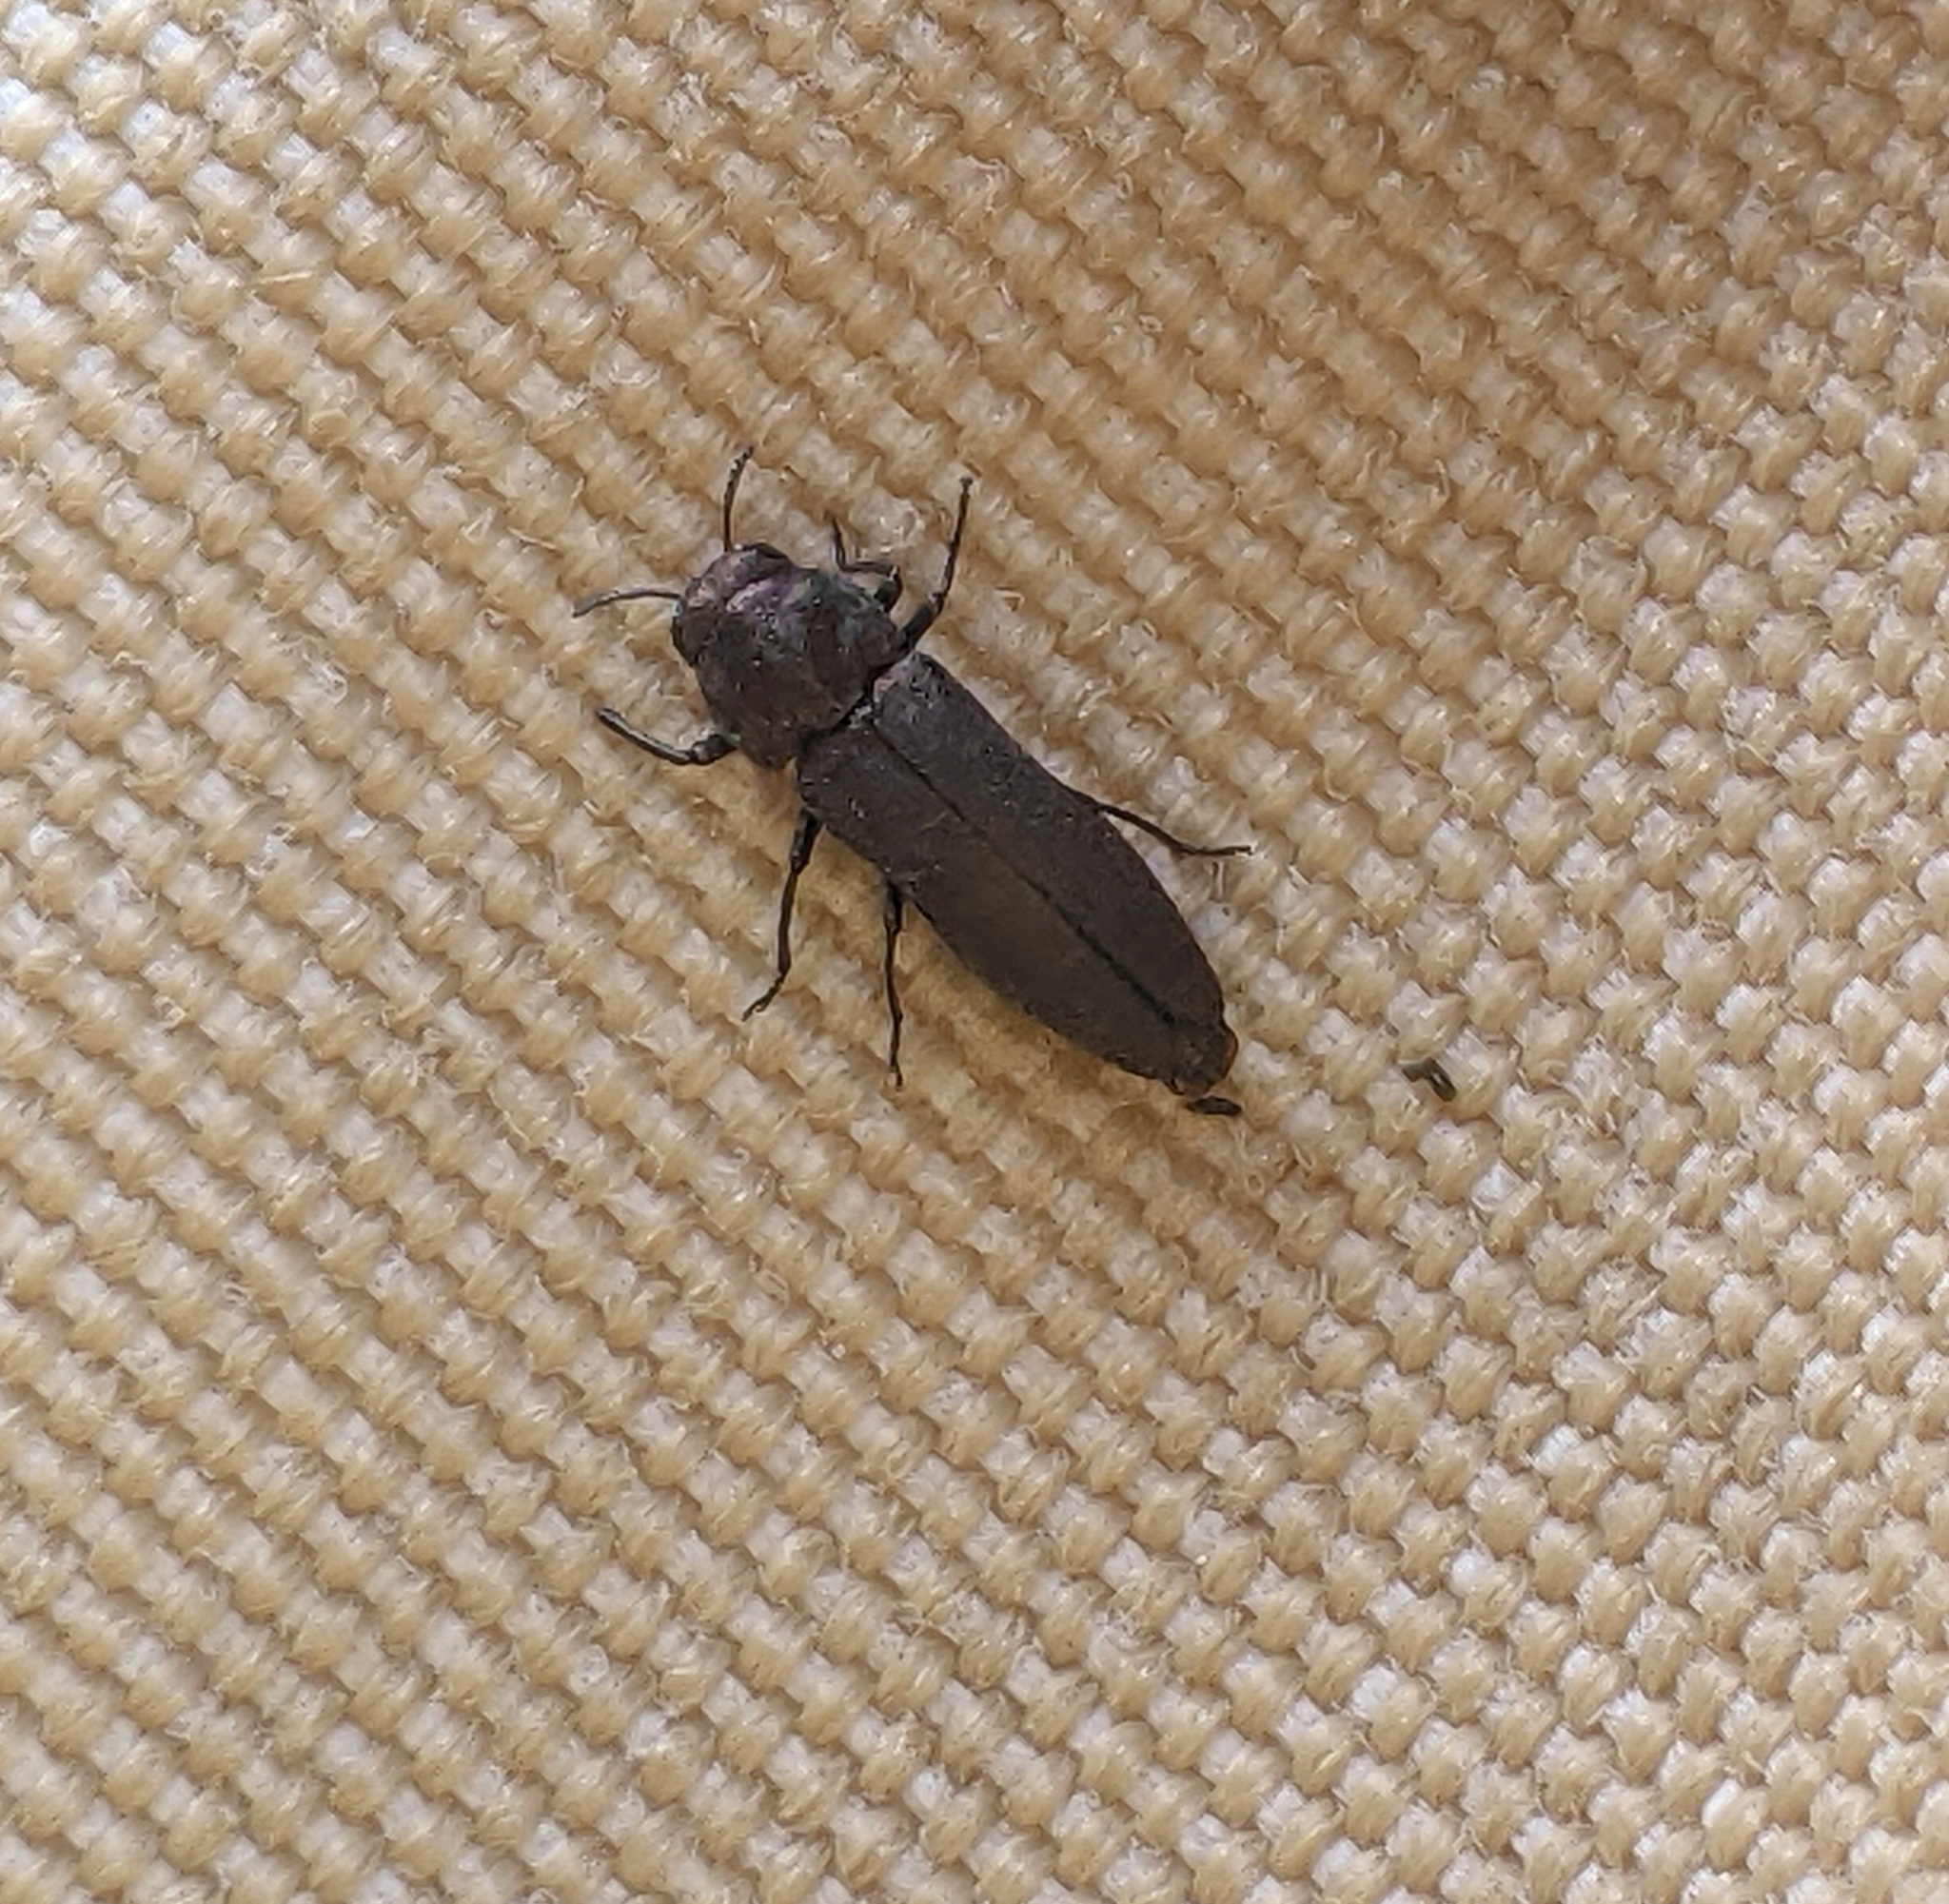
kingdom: Animalia
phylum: Arthropoda
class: Insecta
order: Coleoptera
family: Buprestidae
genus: Meliboeus
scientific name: Meliboeus gibbicollis
